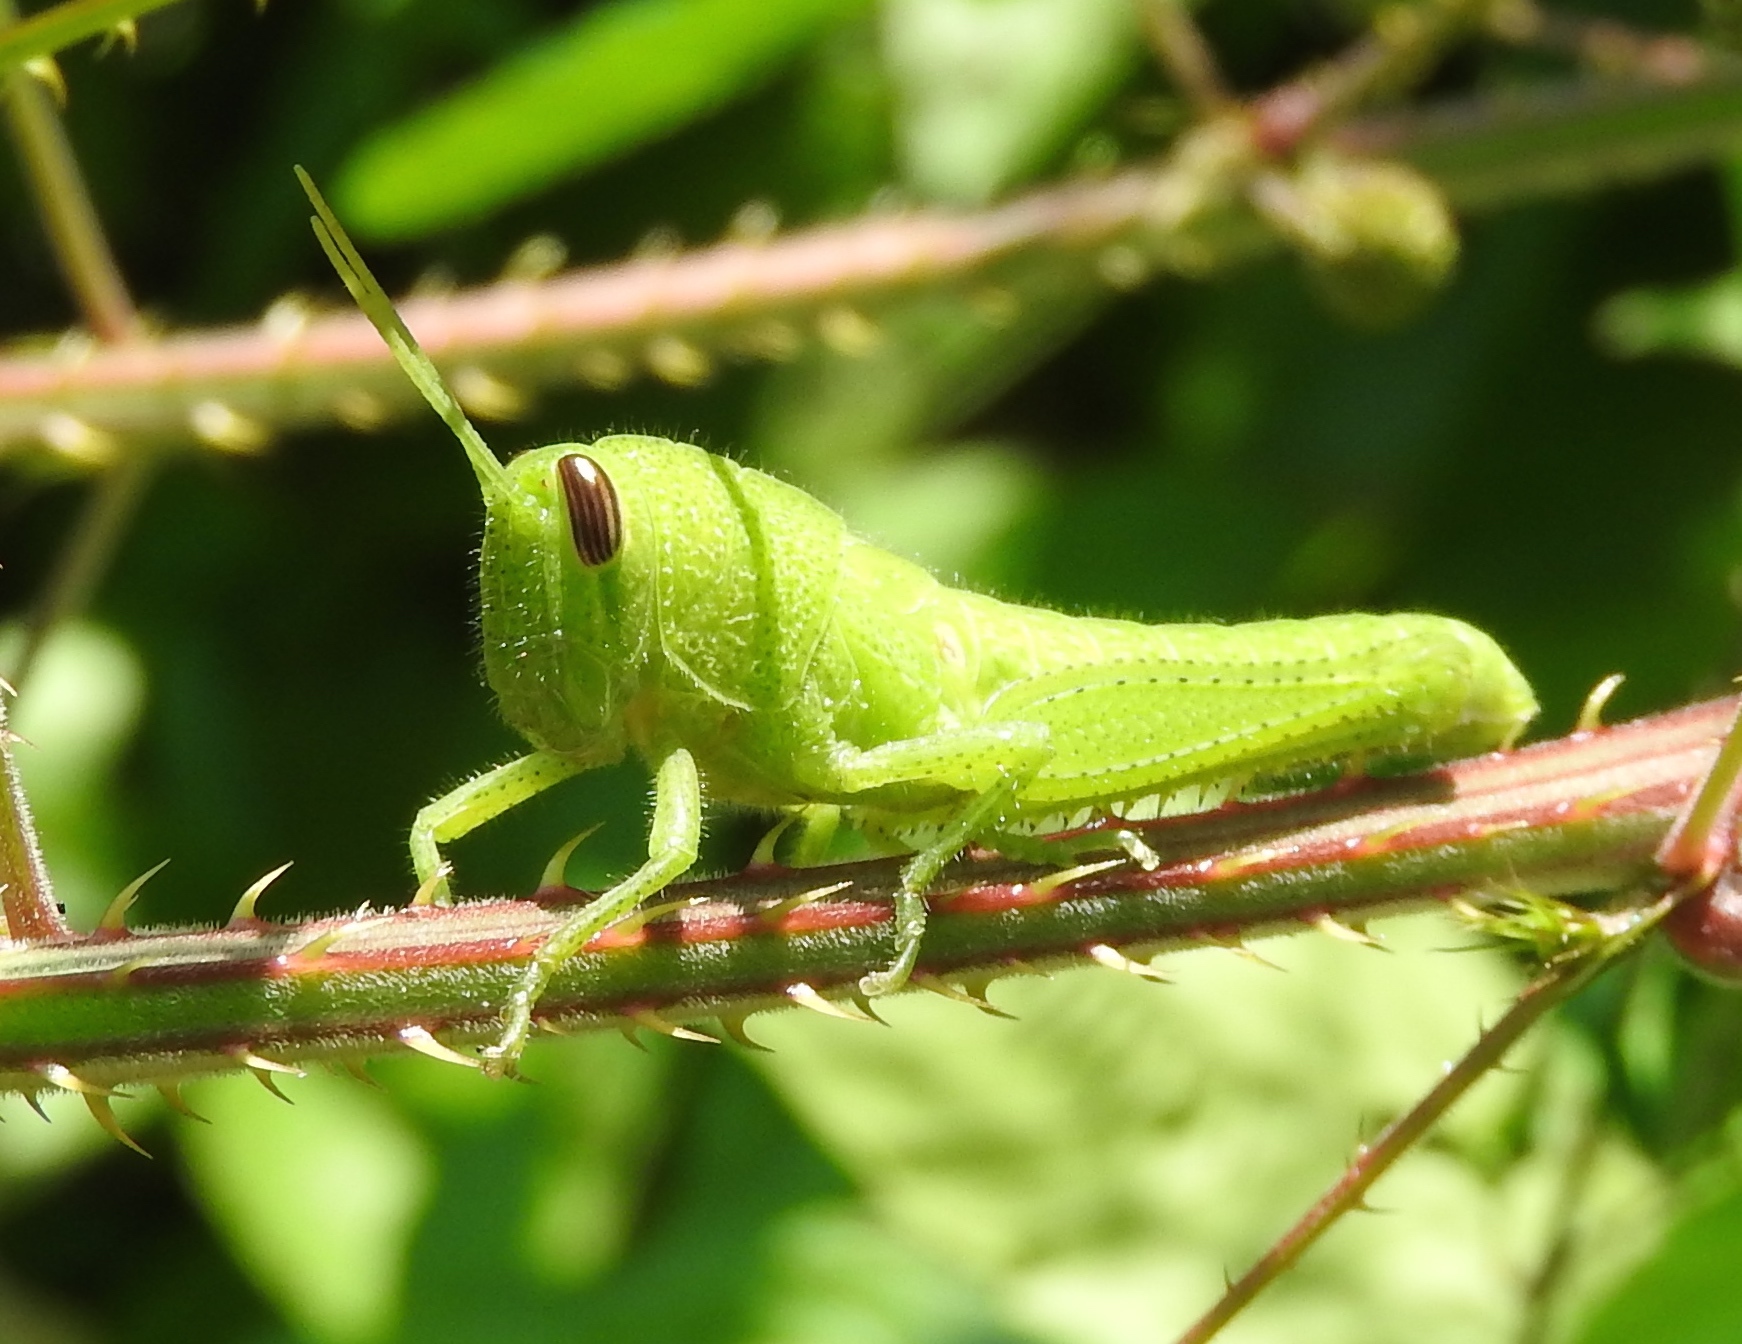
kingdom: Animalia
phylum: Arthropoda
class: Insecta
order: Orthoptera
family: Acrididae
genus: Schistocerca
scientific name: Schistocerca
